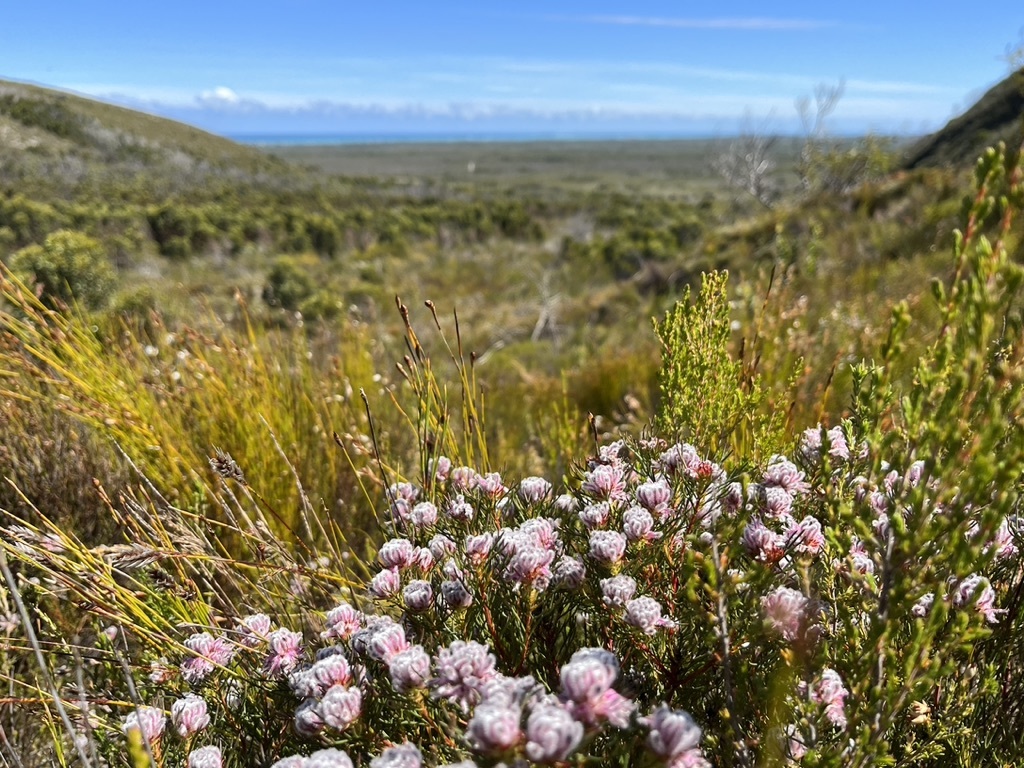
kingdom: Plantae
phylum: Tracheophyta
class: Magnoliopsida
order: Proteales
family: Proteaceae
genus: Serruria
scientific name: Serruria nervosa
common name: Fluted spiderhead
